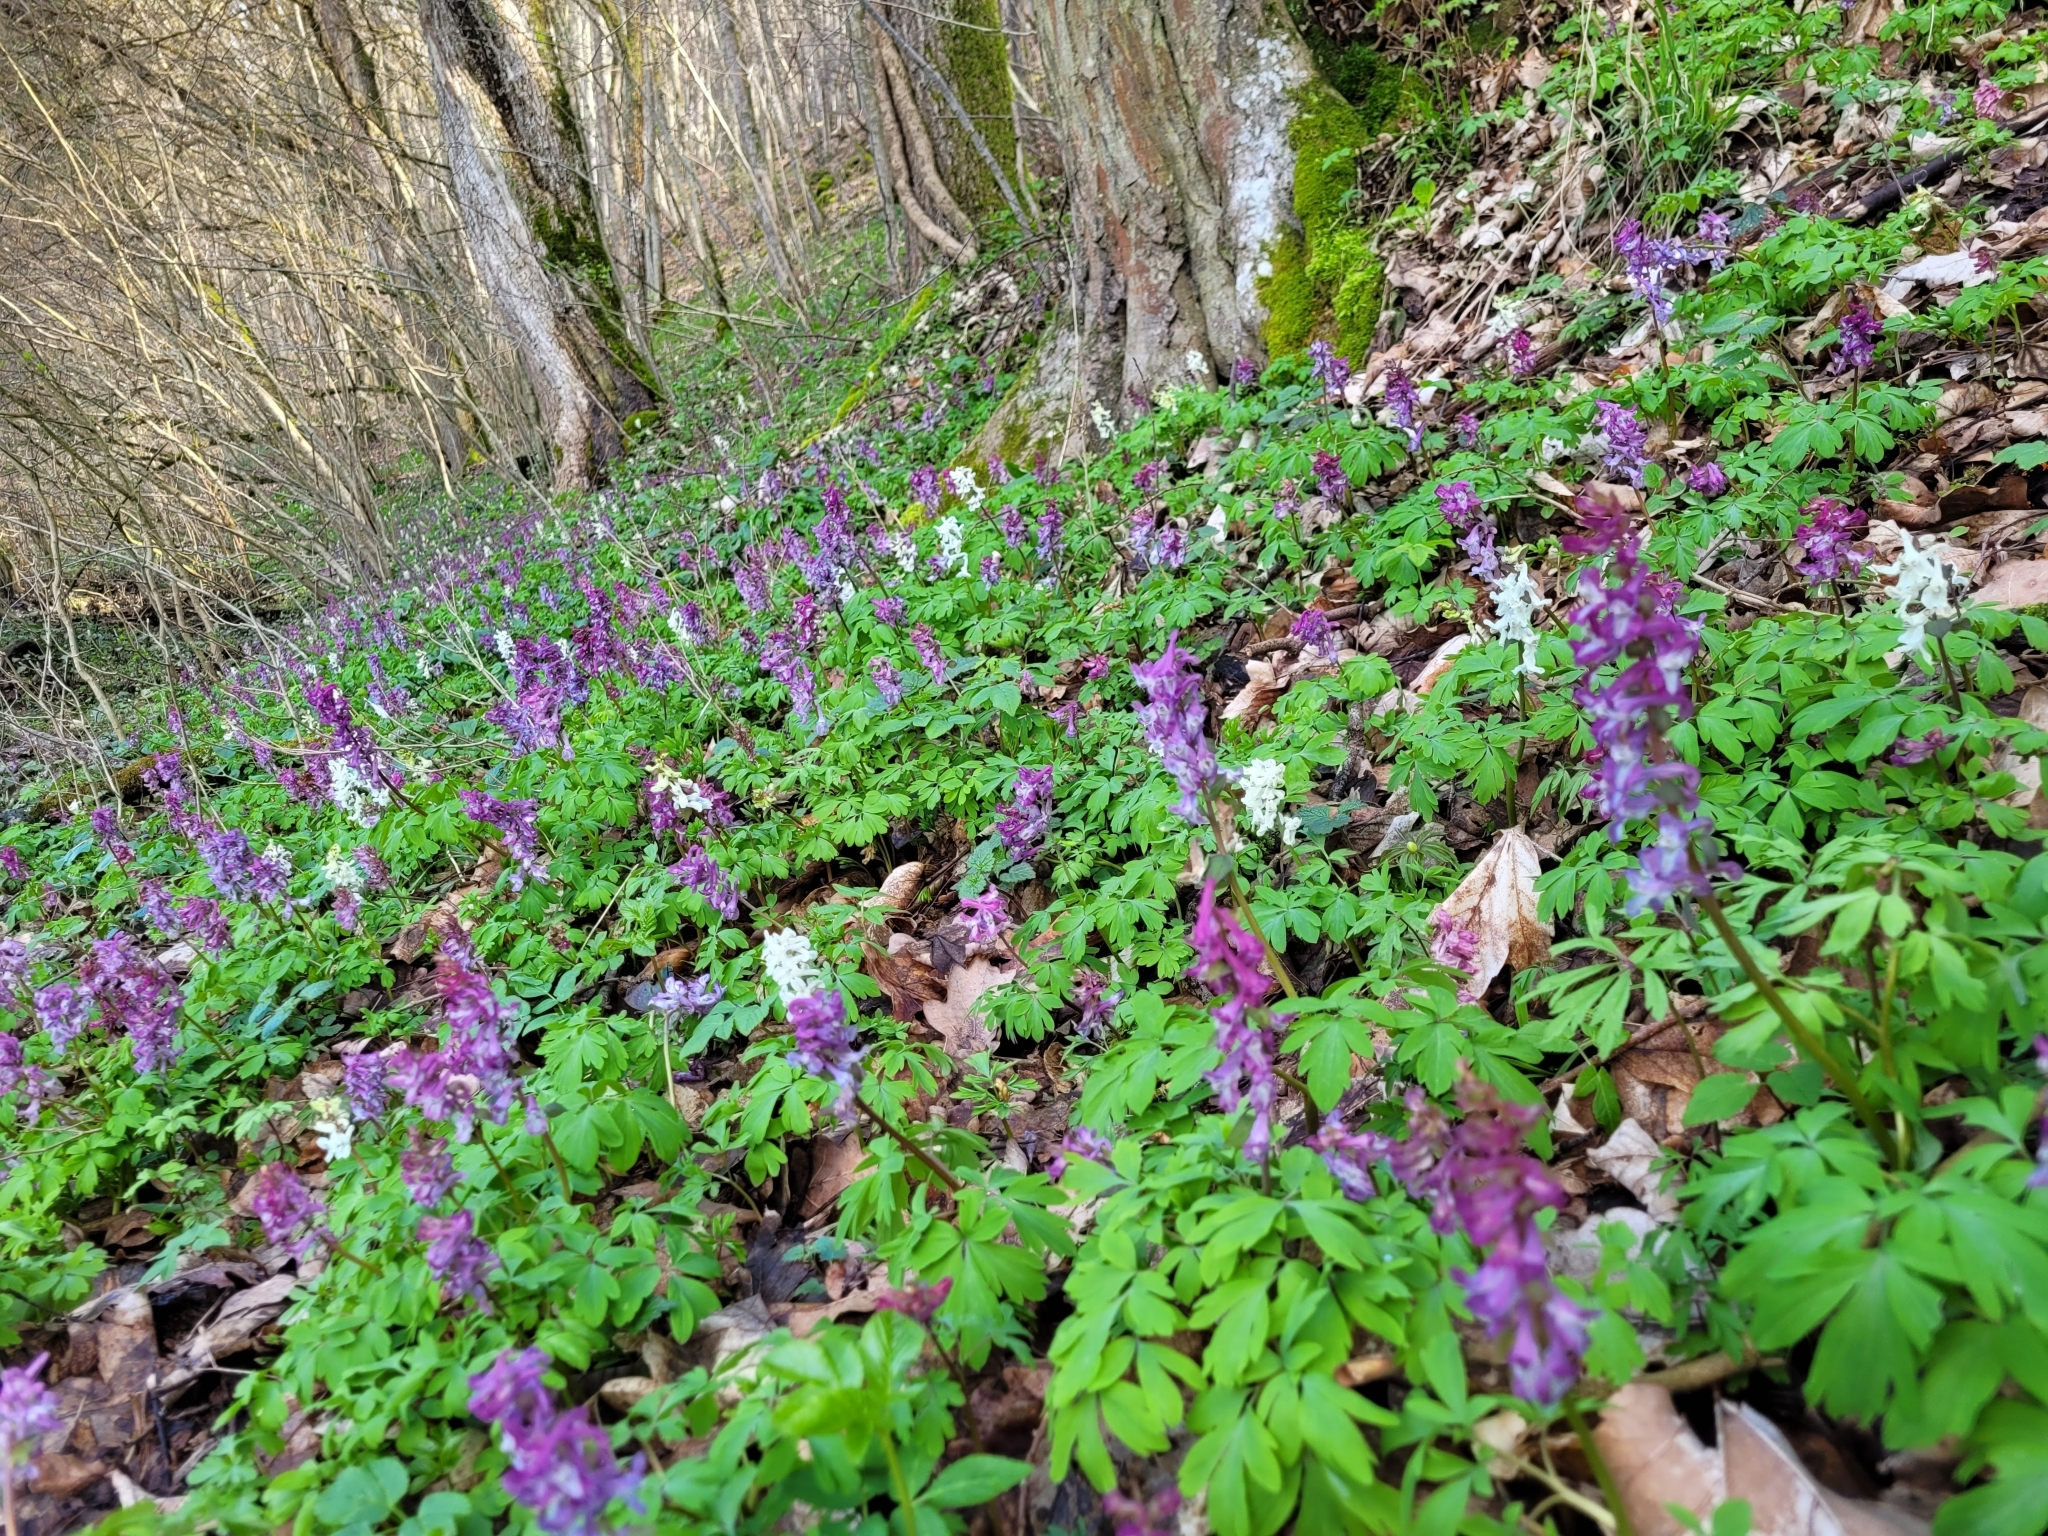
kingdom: Plantae
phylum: Tracheophyta
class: Magnoliopsida
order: Ranunculales
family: Papaveraceae
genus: Corydalis
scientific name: Corydalis cava
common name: Hollowroot
